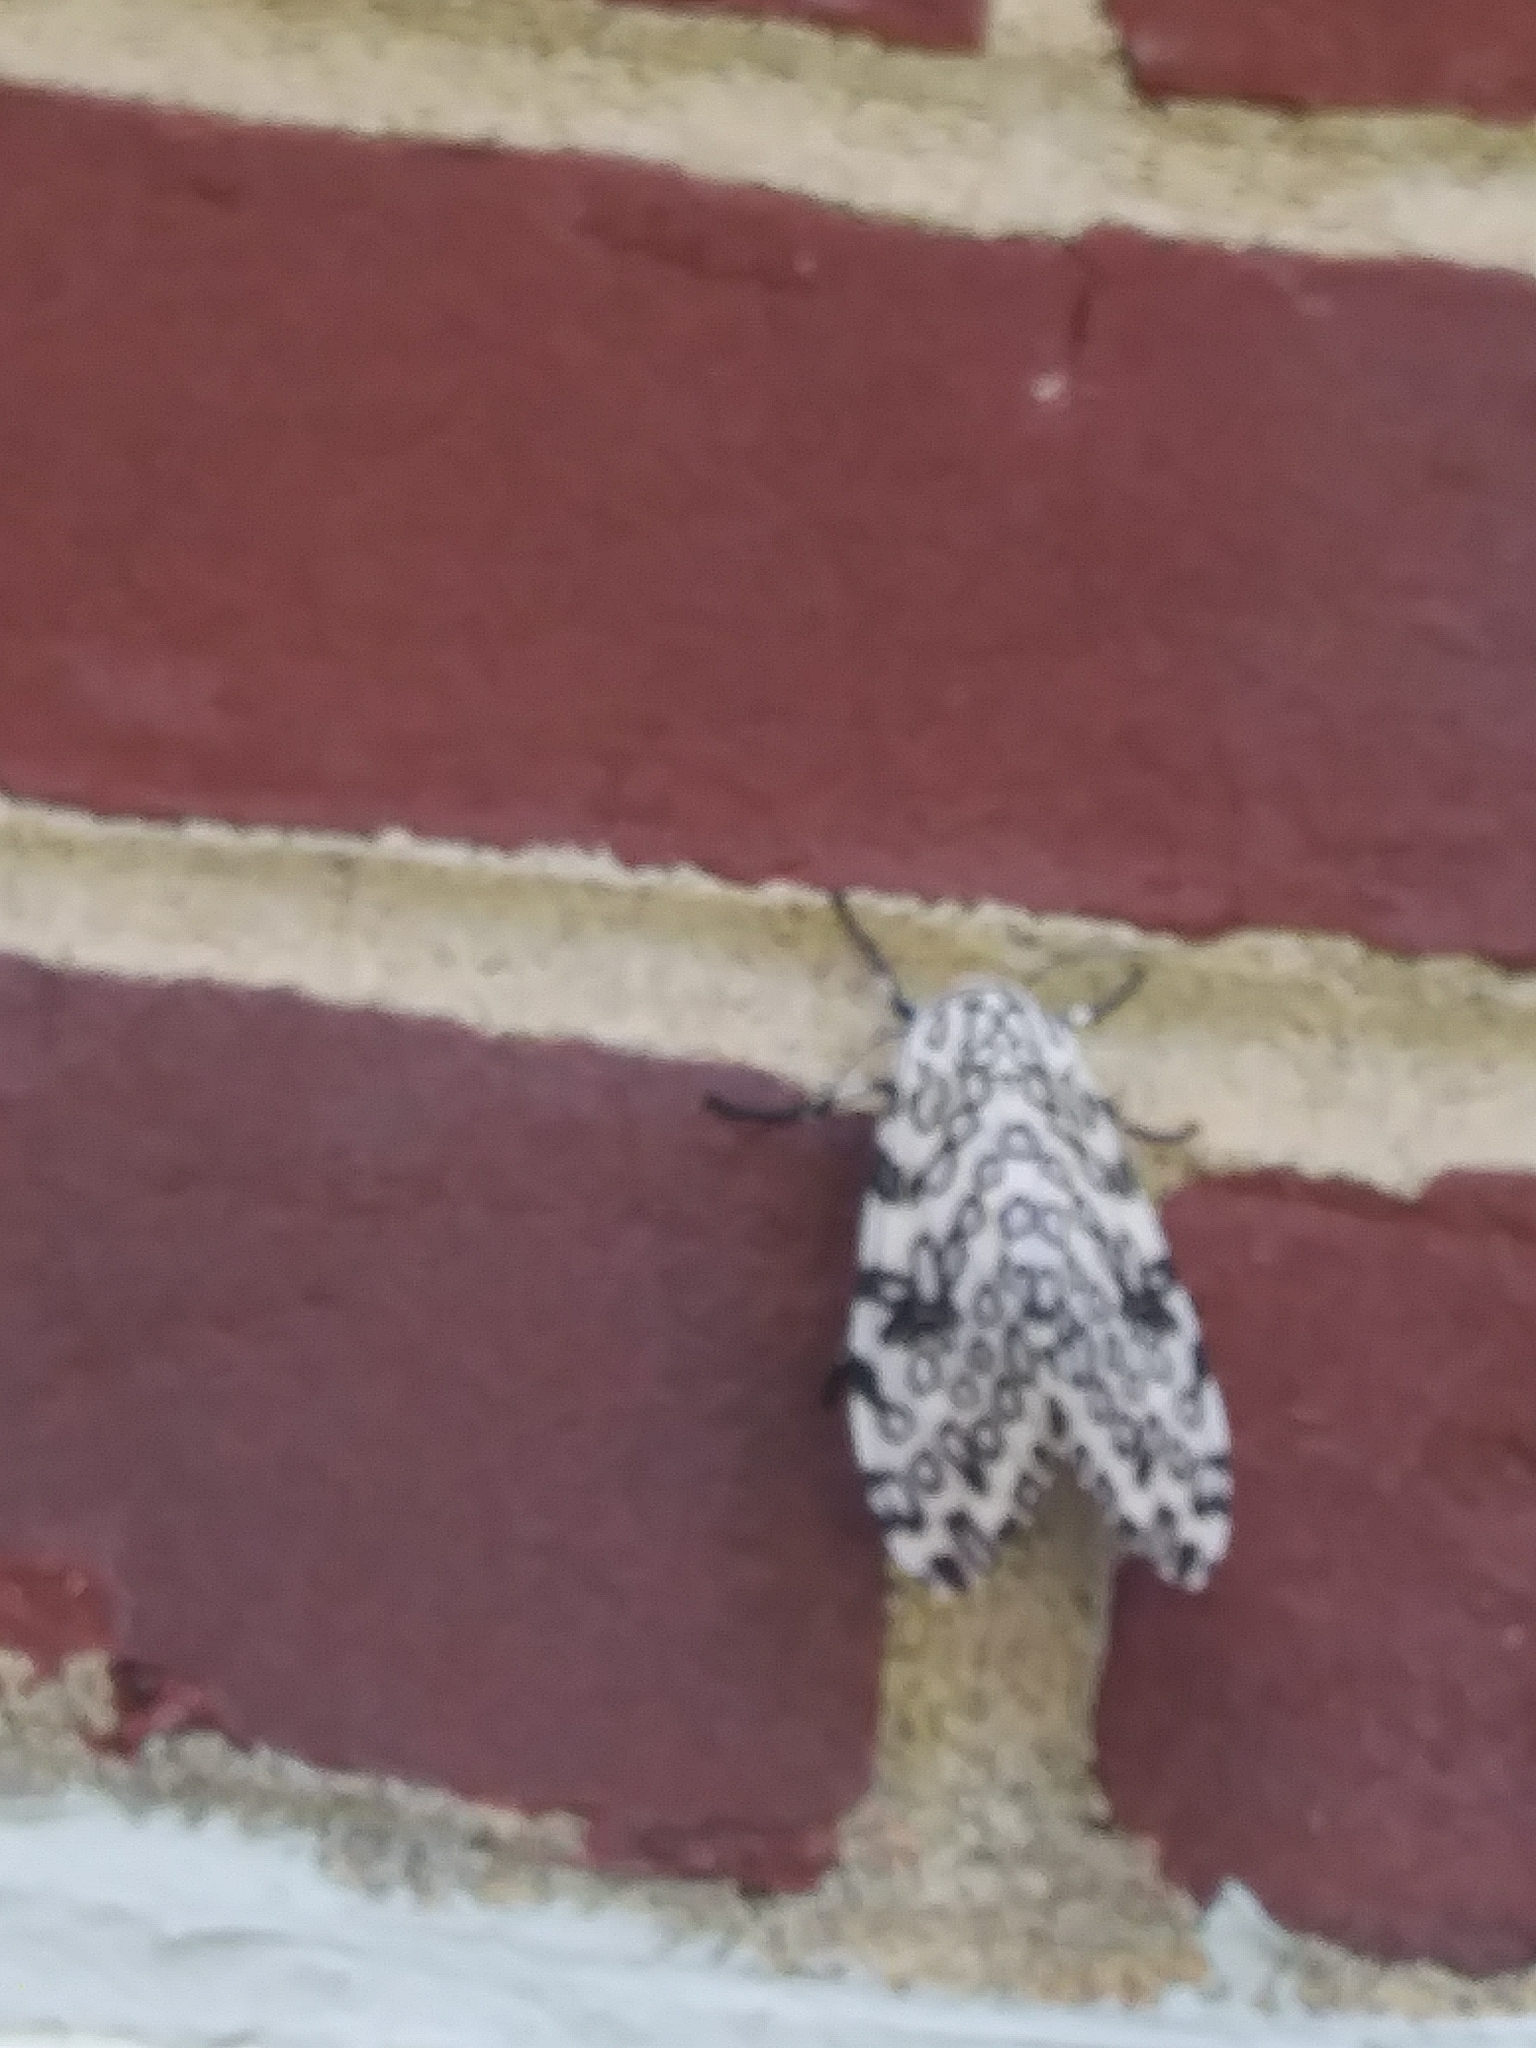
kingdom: Animalia
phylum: Arthropoda
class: Insecta
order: Lepidoptera
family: Erebidae
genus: Hypercompe
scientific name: Hypercompe scribonia
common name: Giant leopard moth
